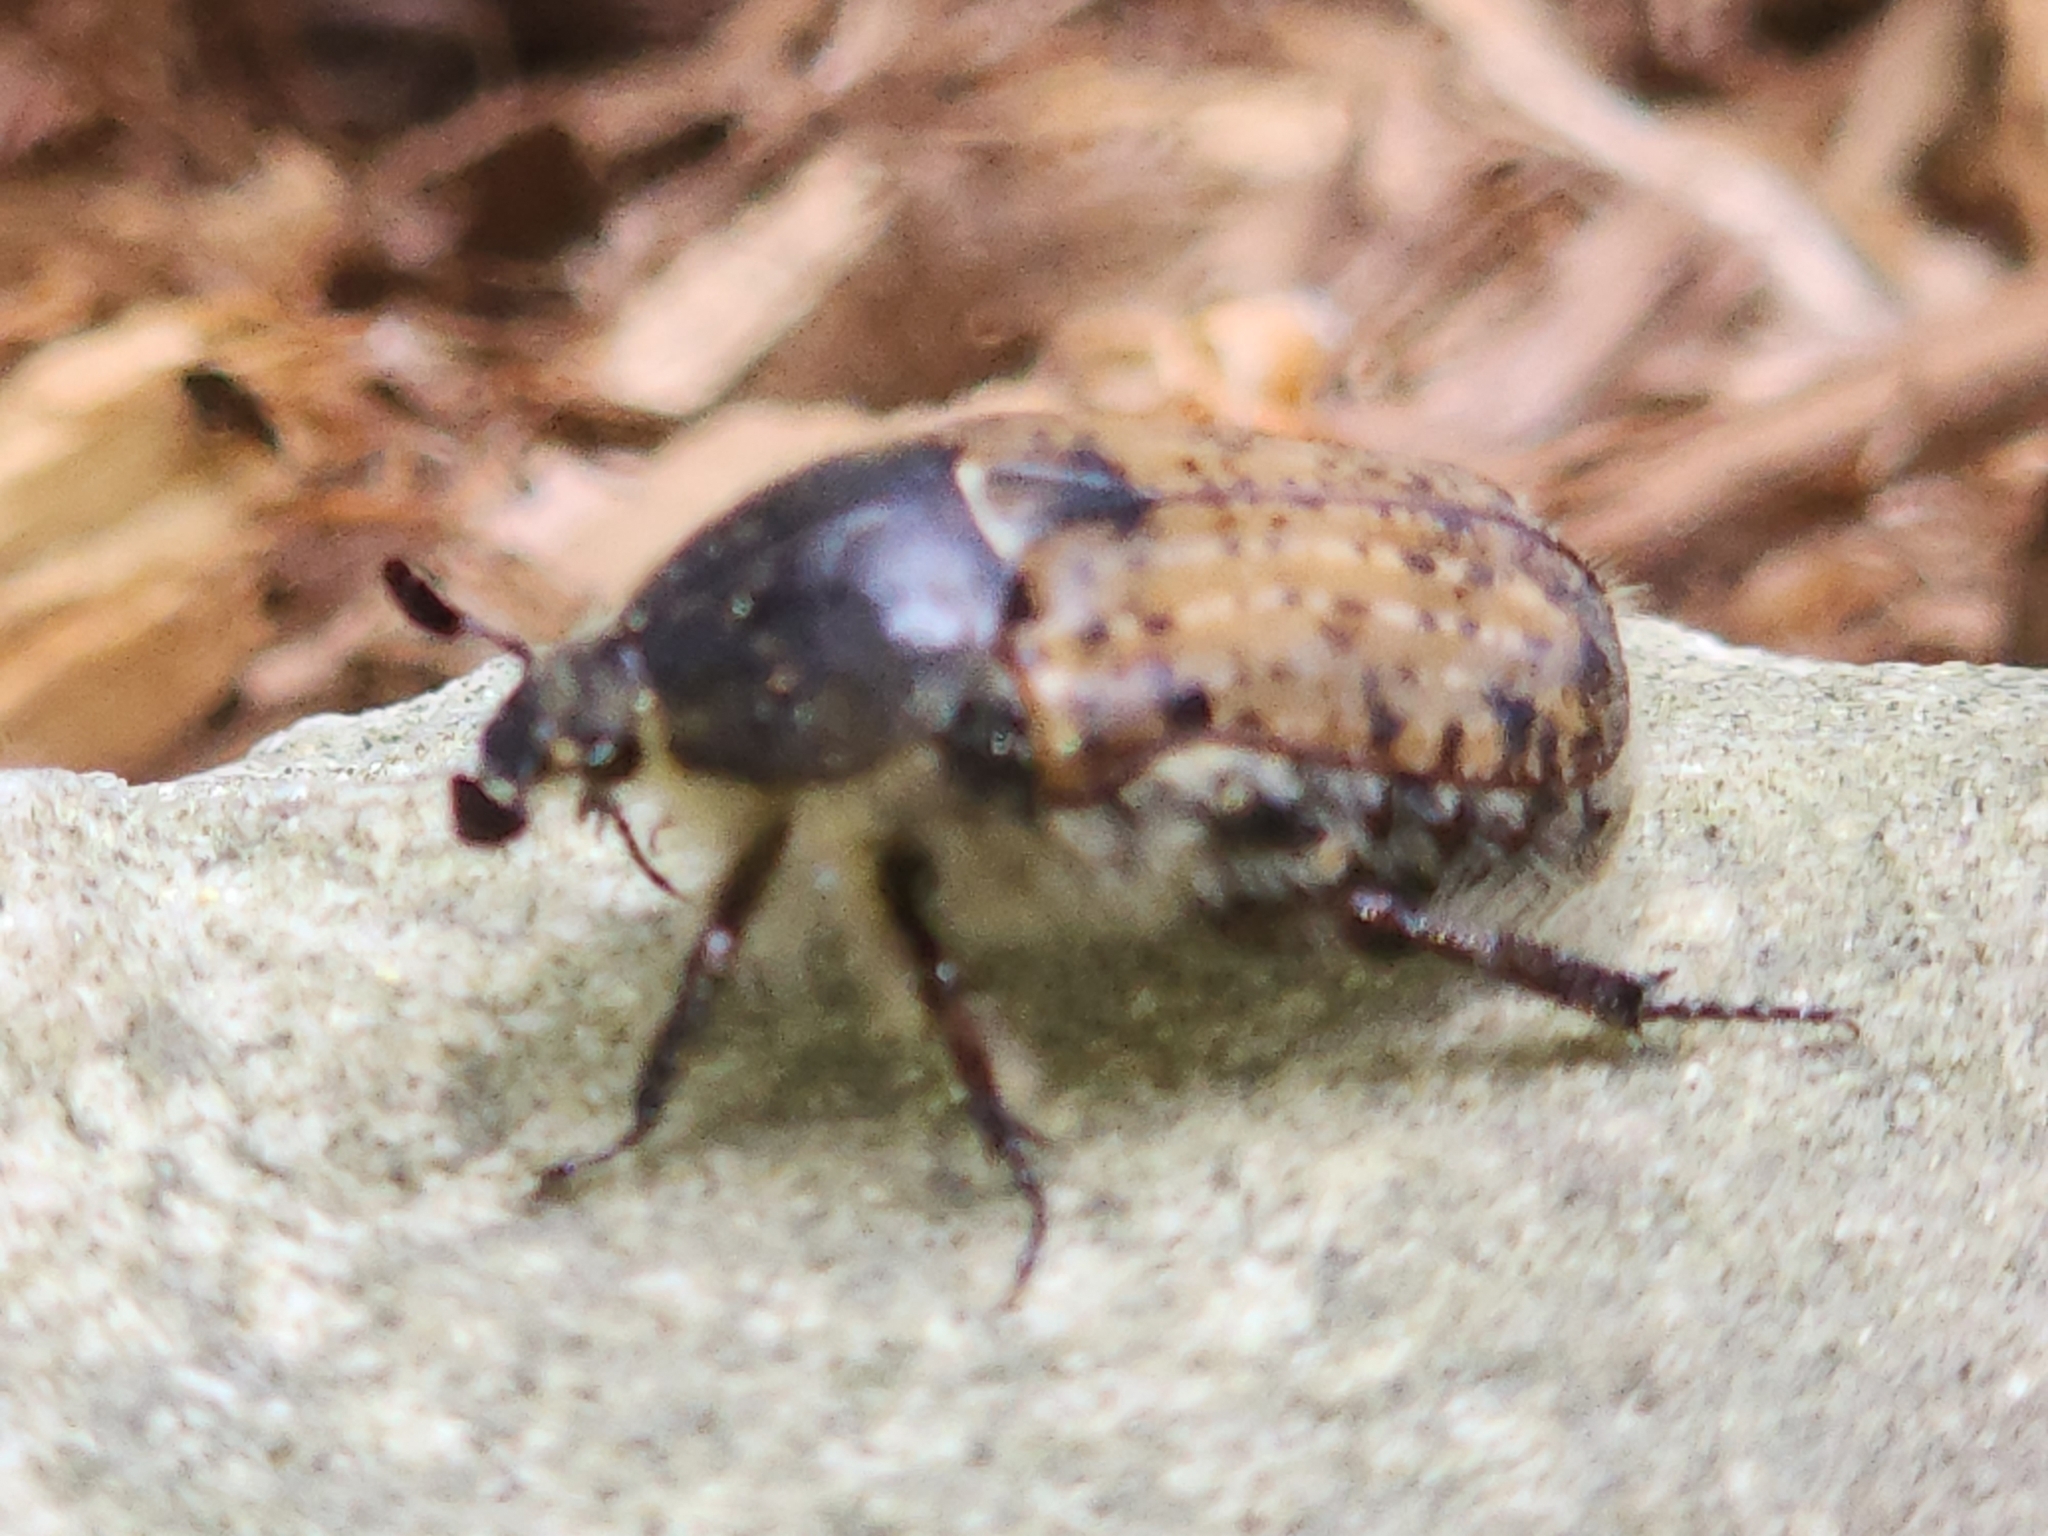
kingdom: Animalia
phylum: Arthropoda
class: Insecta
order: Coleoptera
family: Scarabaeidae
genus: Euphoria
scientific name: Euphoria inda
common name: Bumble flower beetle
